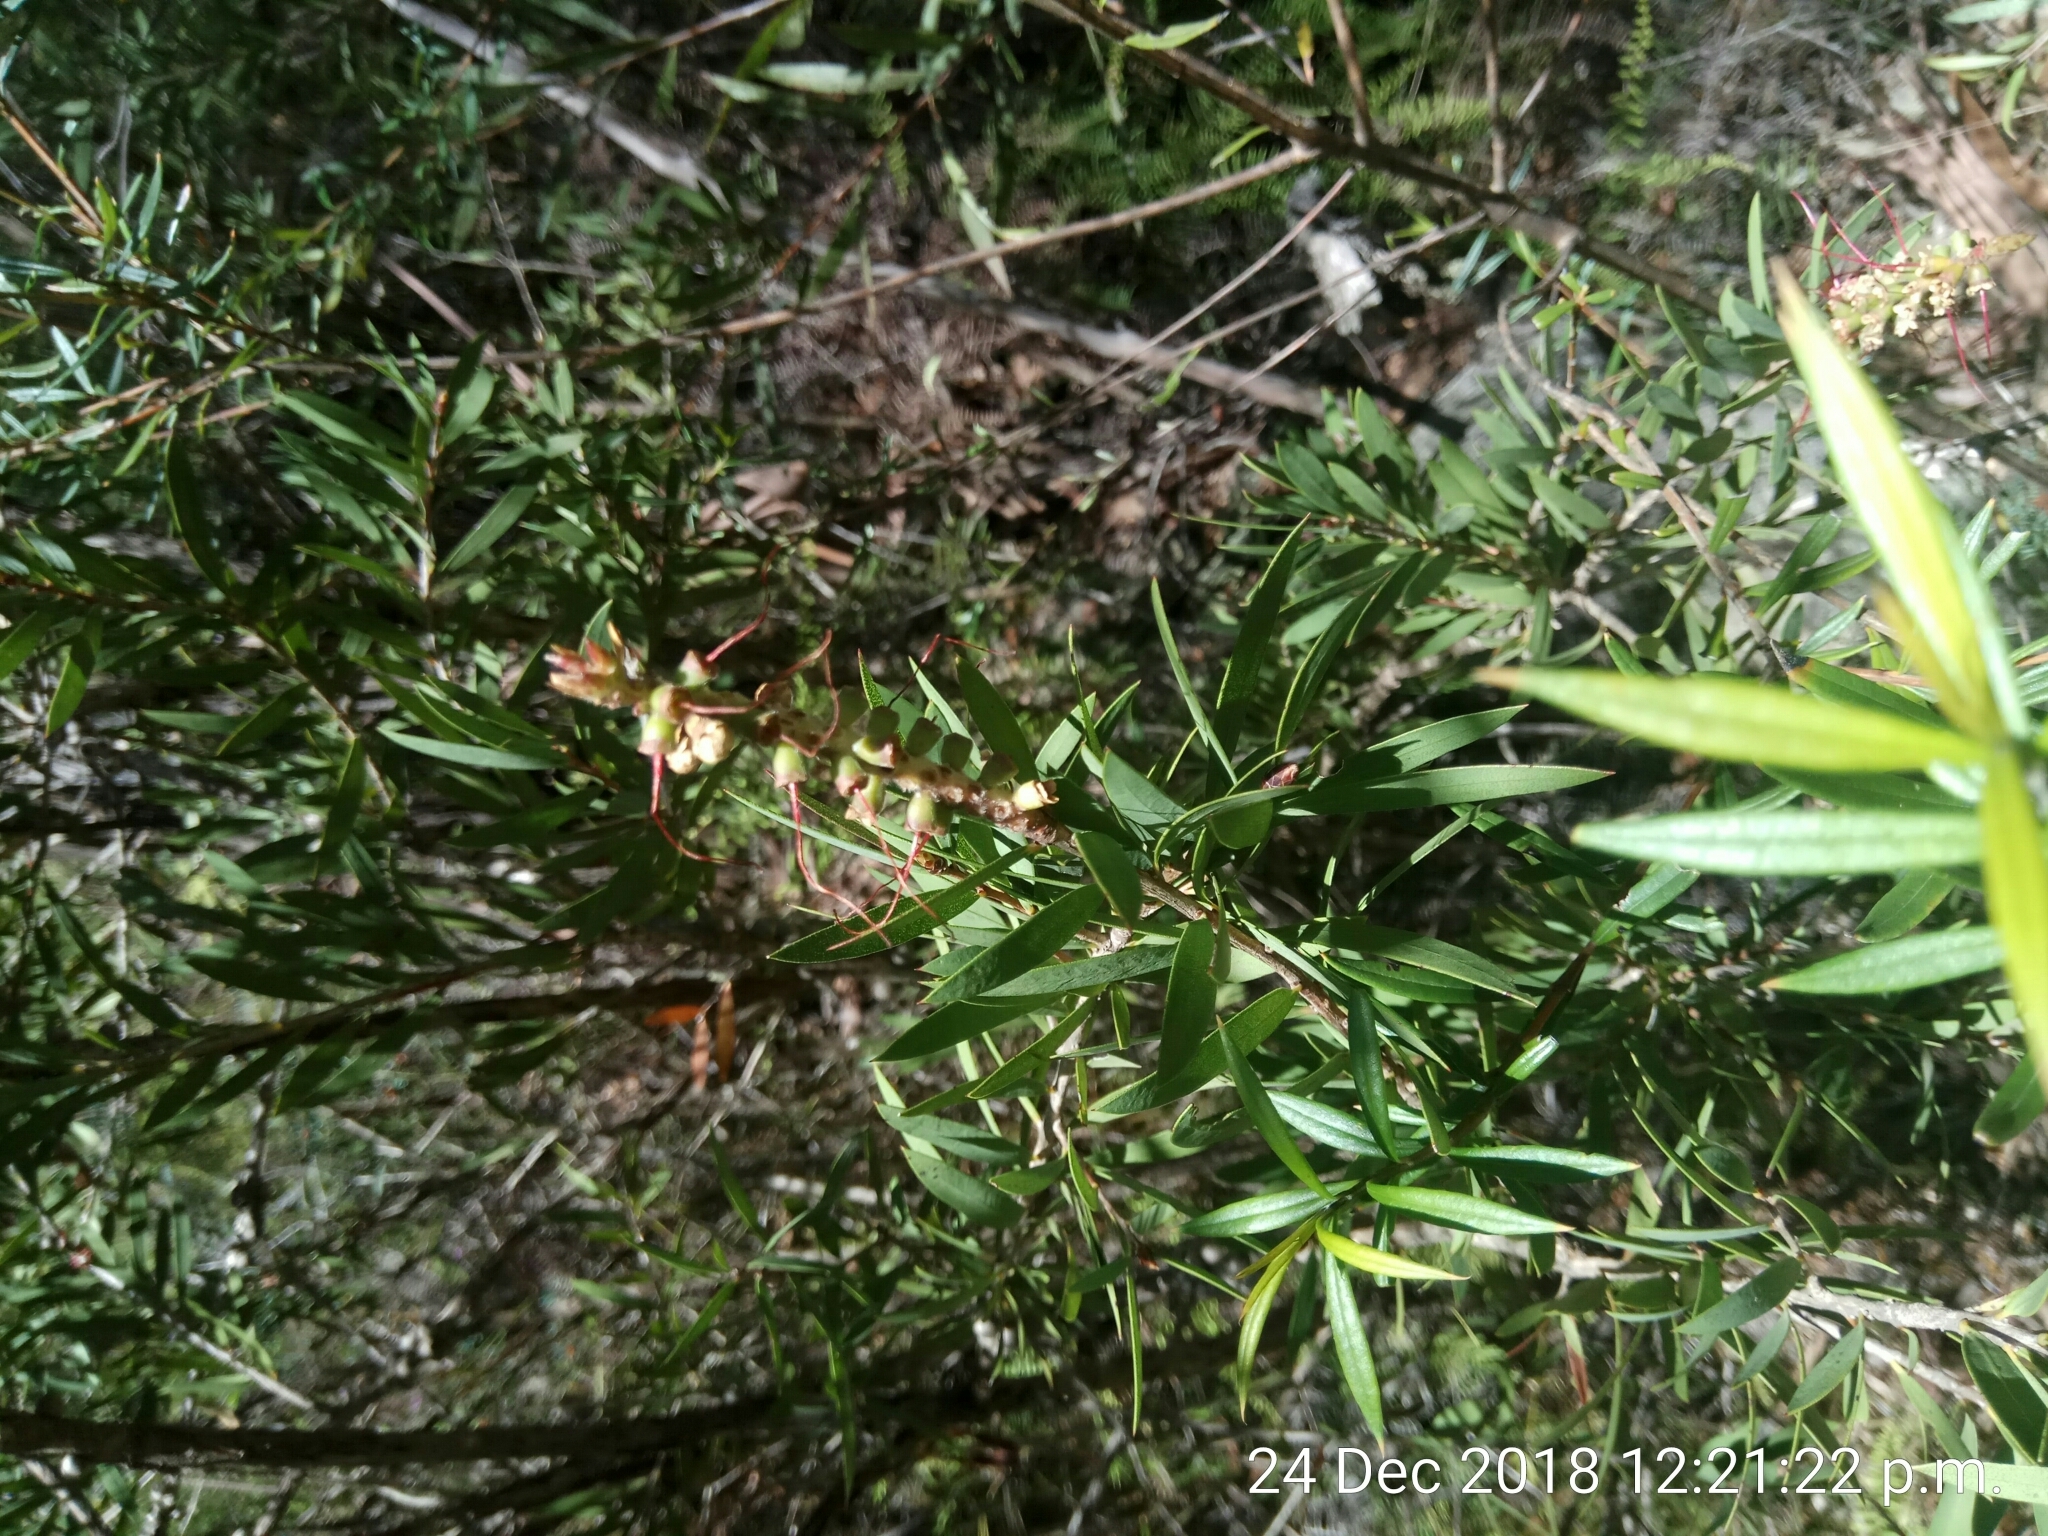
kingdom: Plantae
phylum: Tracheophyta
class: Magnoliopsida
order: Myrtales
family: Myrtaceae
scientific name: Myrtaceae
